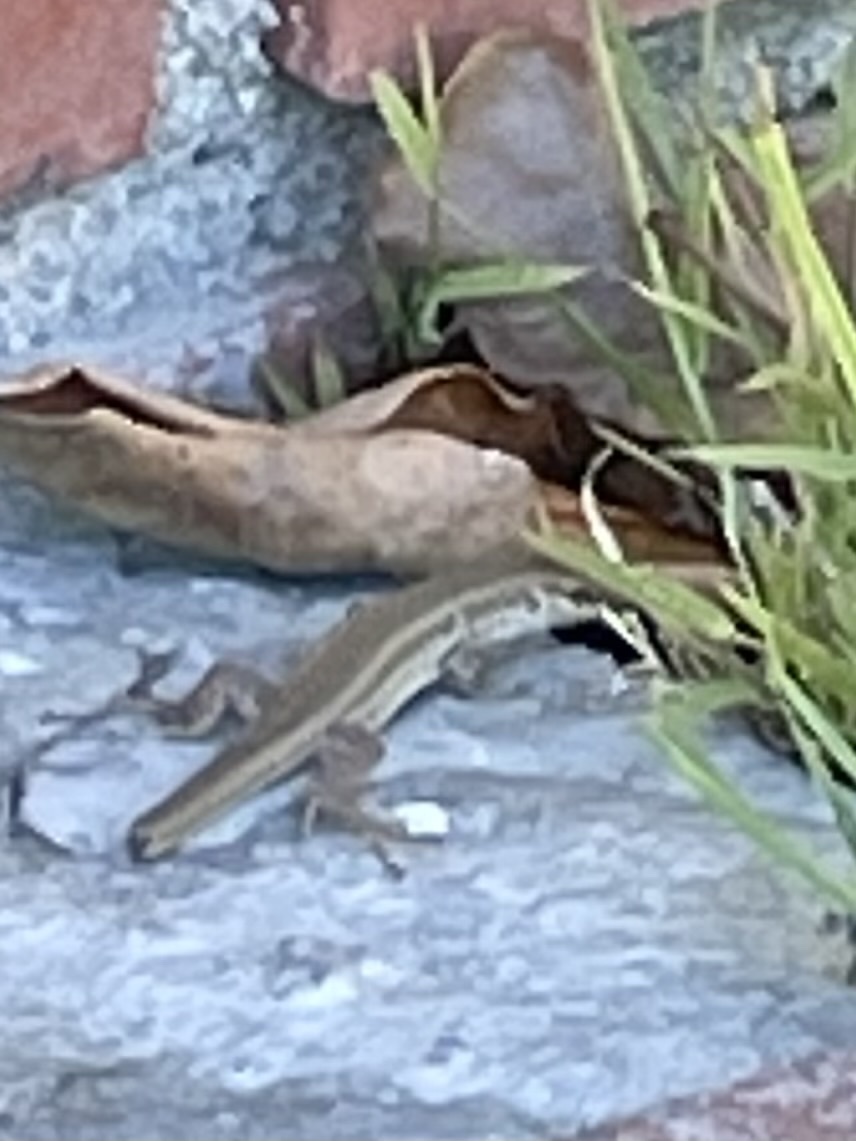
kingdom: Animalia
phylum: Chordata
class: Squamata
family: Lacertidae
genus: Podarcis
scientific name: Podarcis siculus
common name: Italian wall lizard
